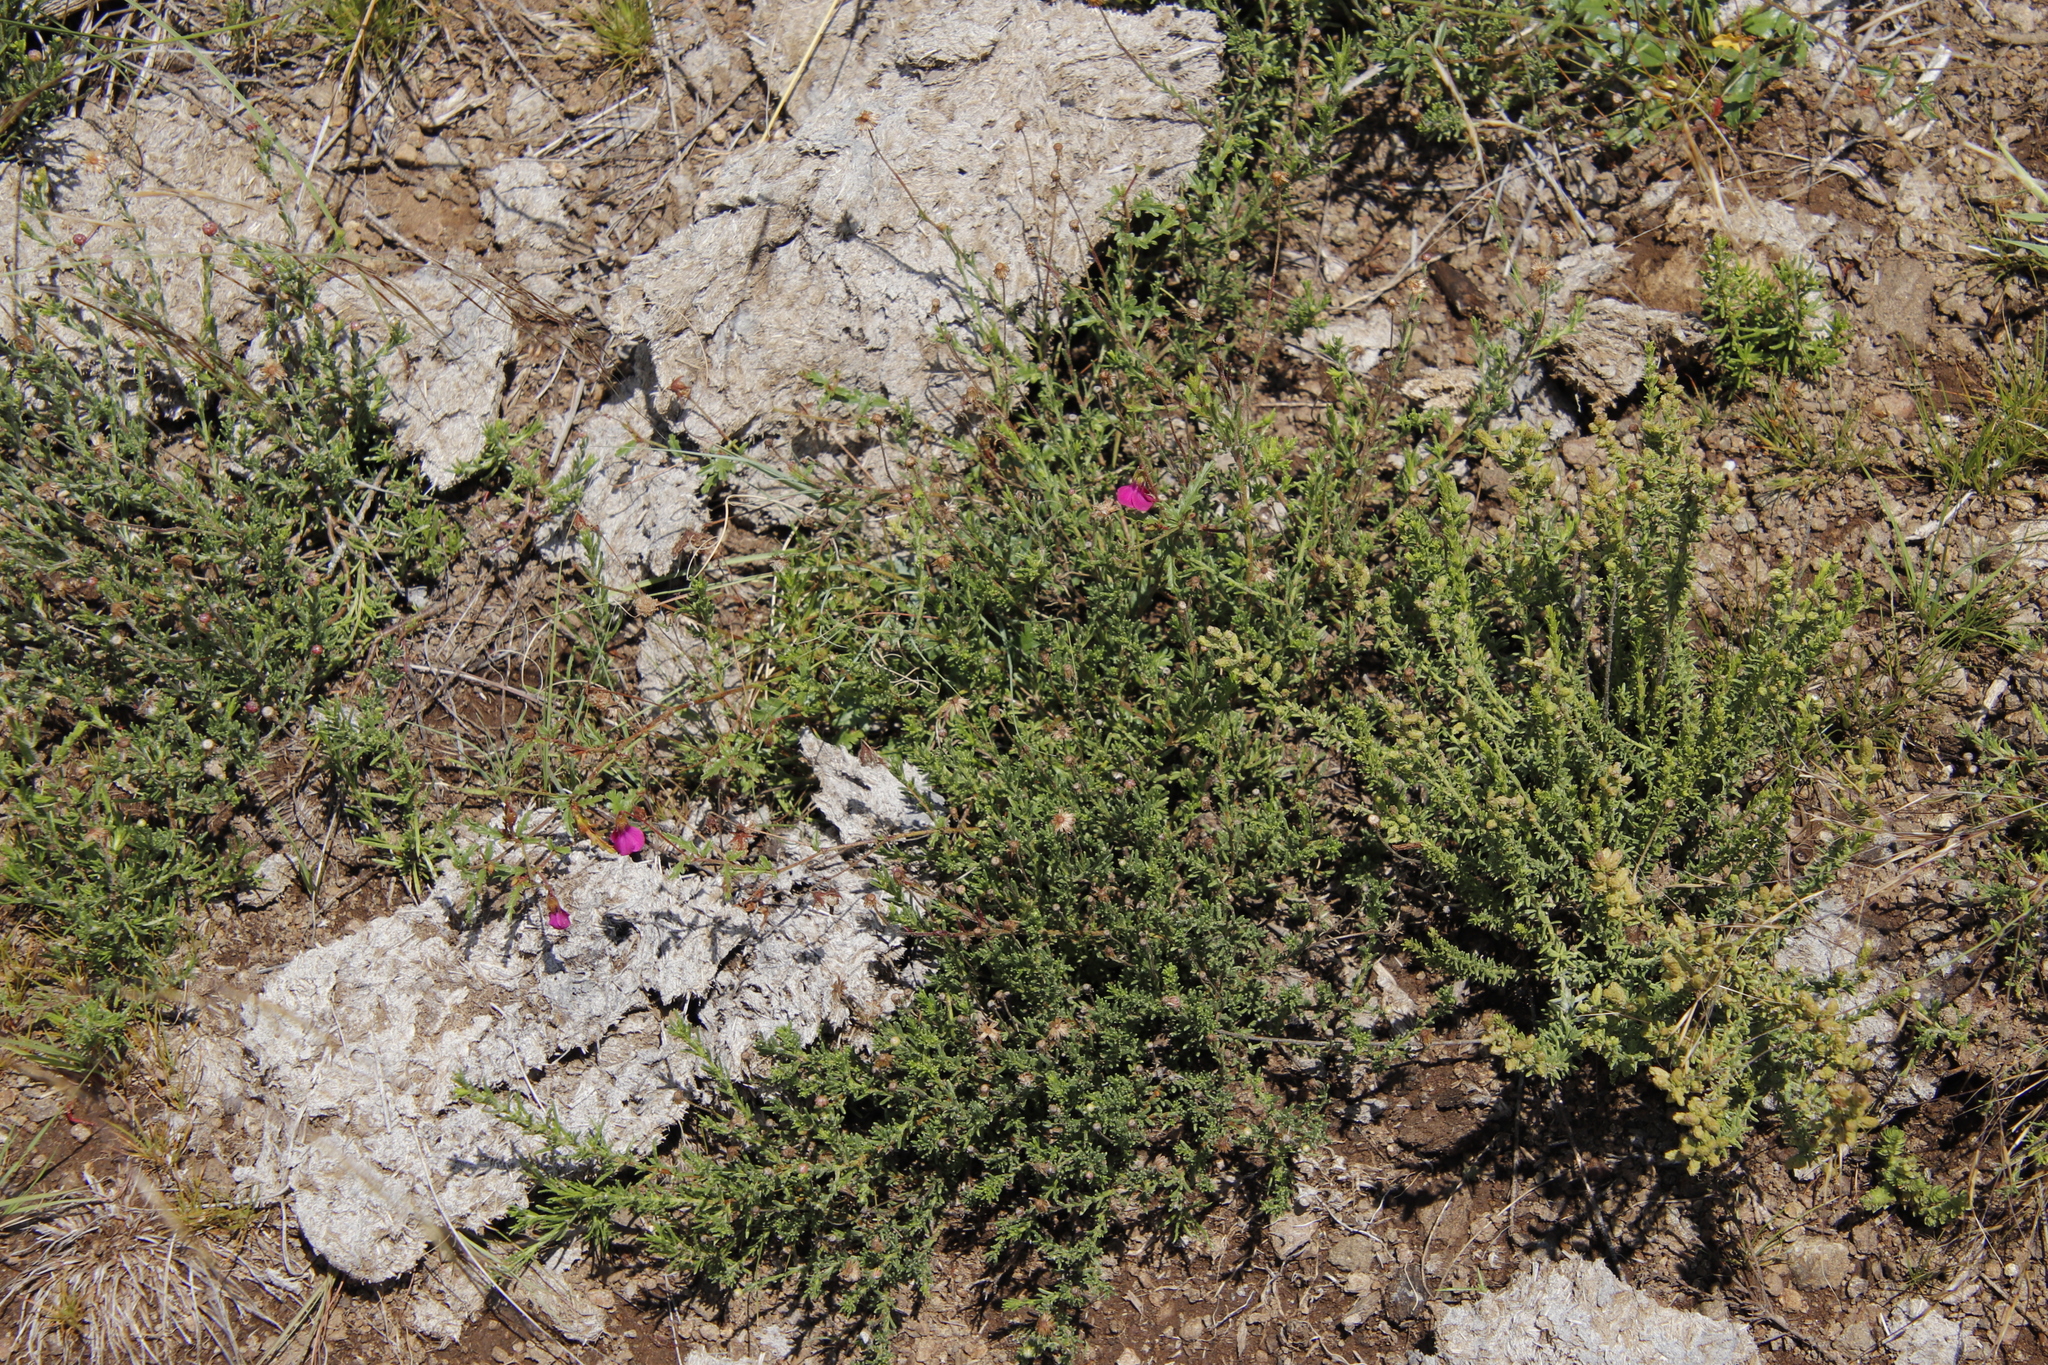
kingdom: Plantae
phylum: Tracheophyta
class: Magnoliopsida
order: Malvales
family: Malvaceae
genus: Hermannia
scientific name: Hermannia coccocarpa
